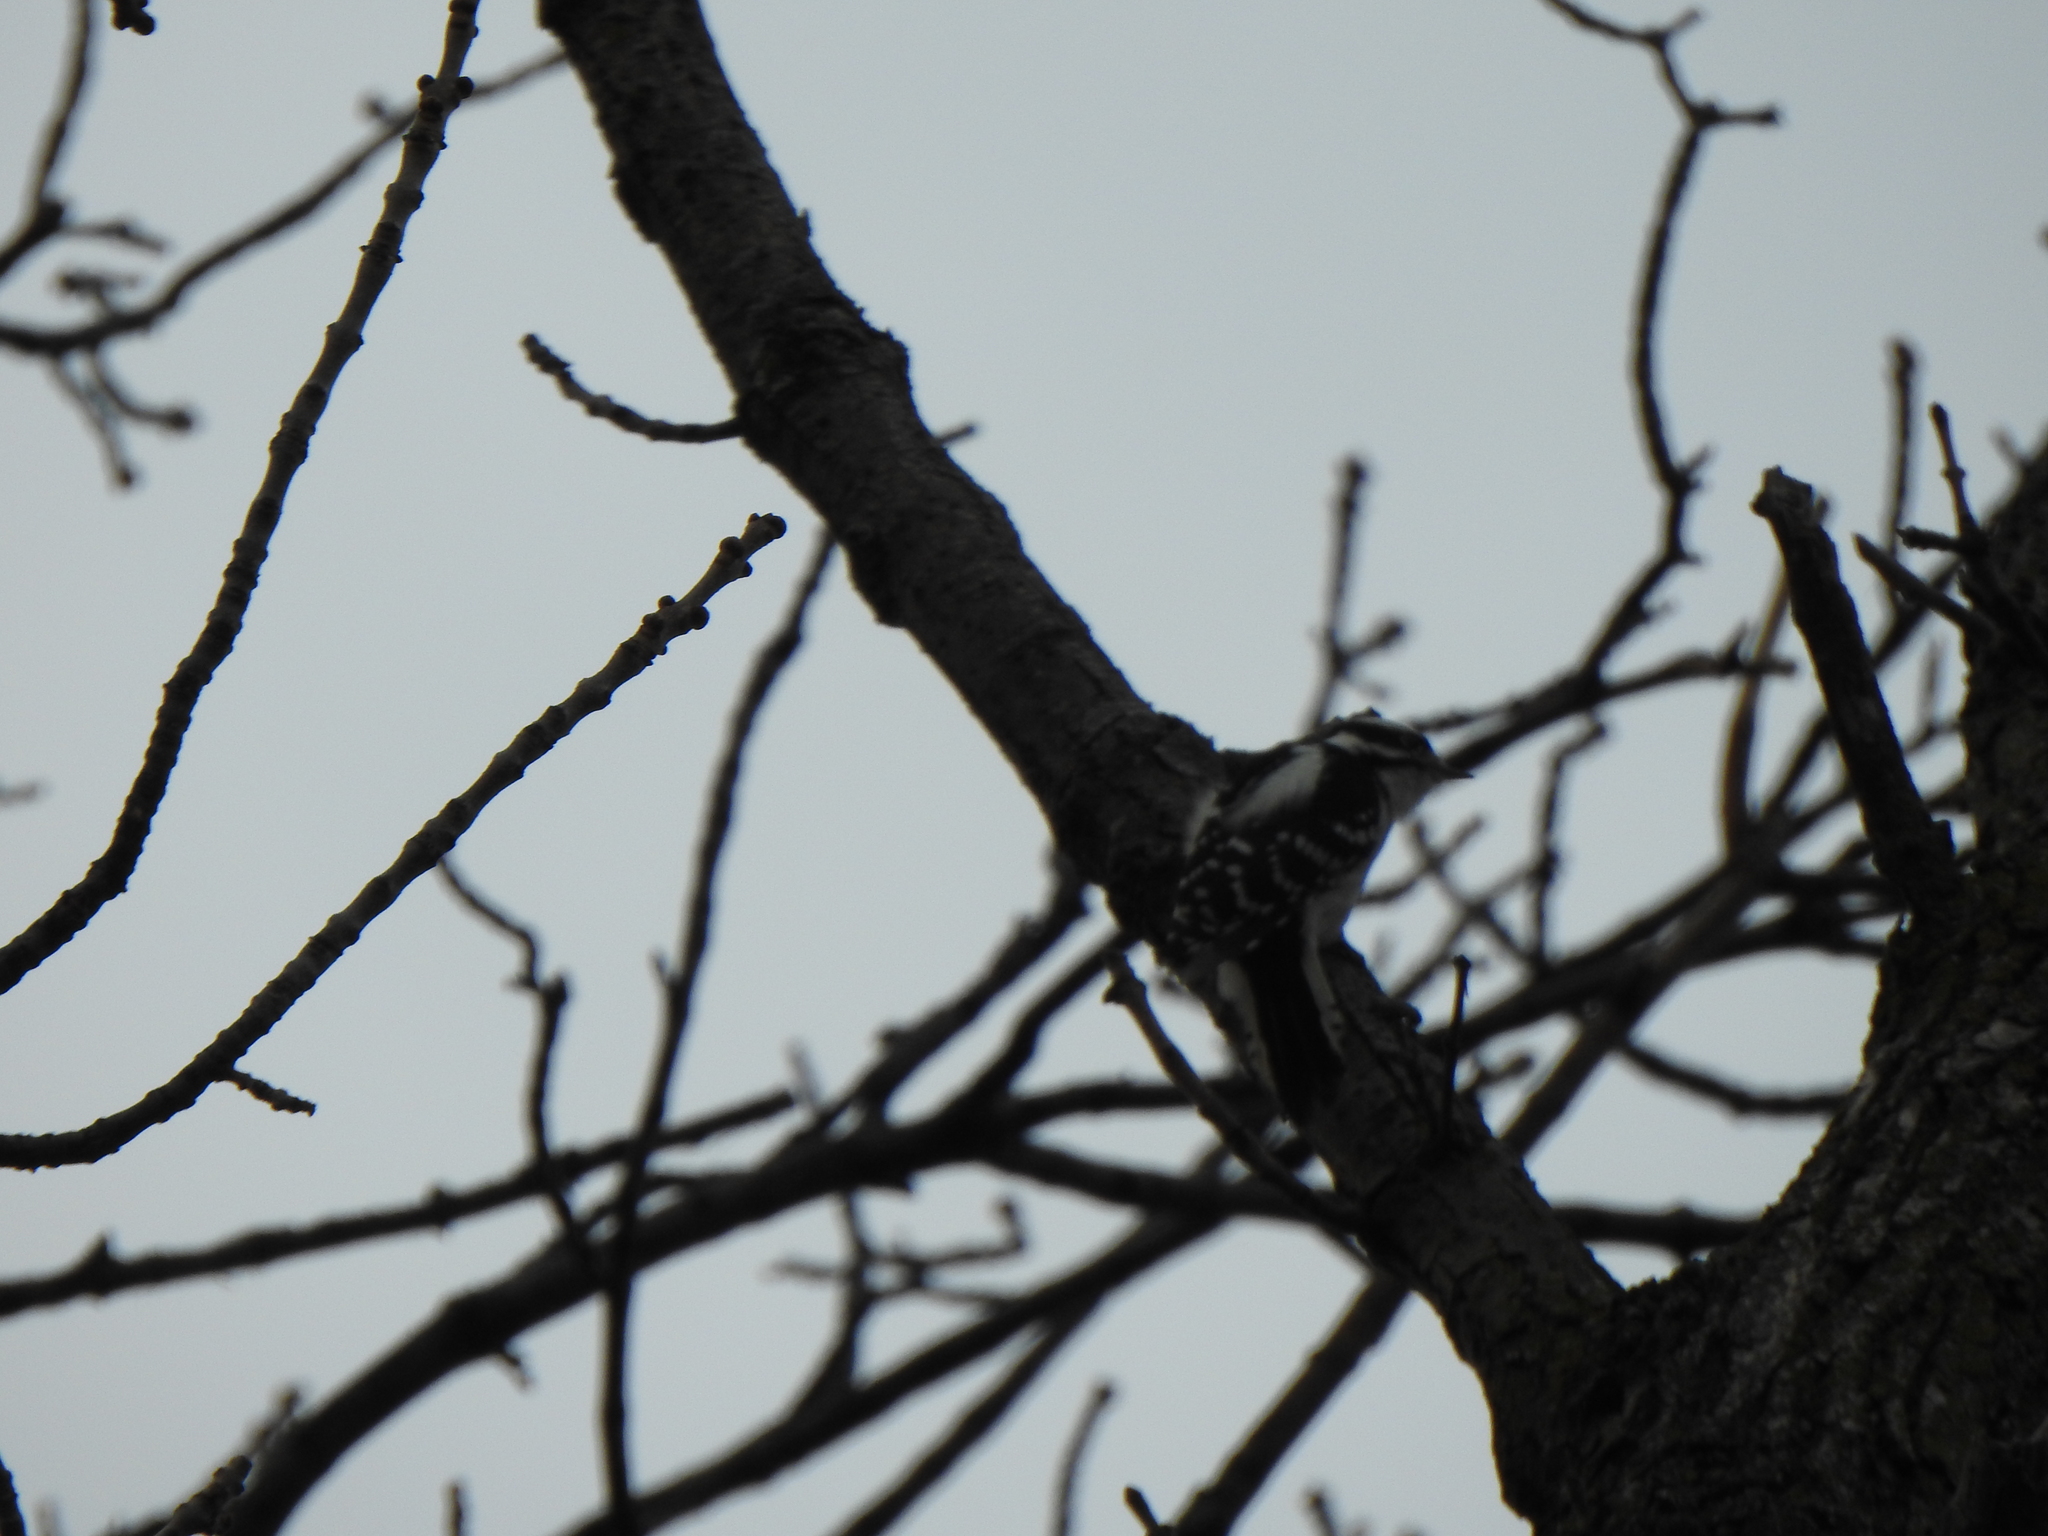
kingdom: Animalia
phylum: Chordata
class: Aves
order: Piciformes
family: Picidae
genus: Dryobates
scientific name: Dryobates pubescens
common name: Downy woodpecker
